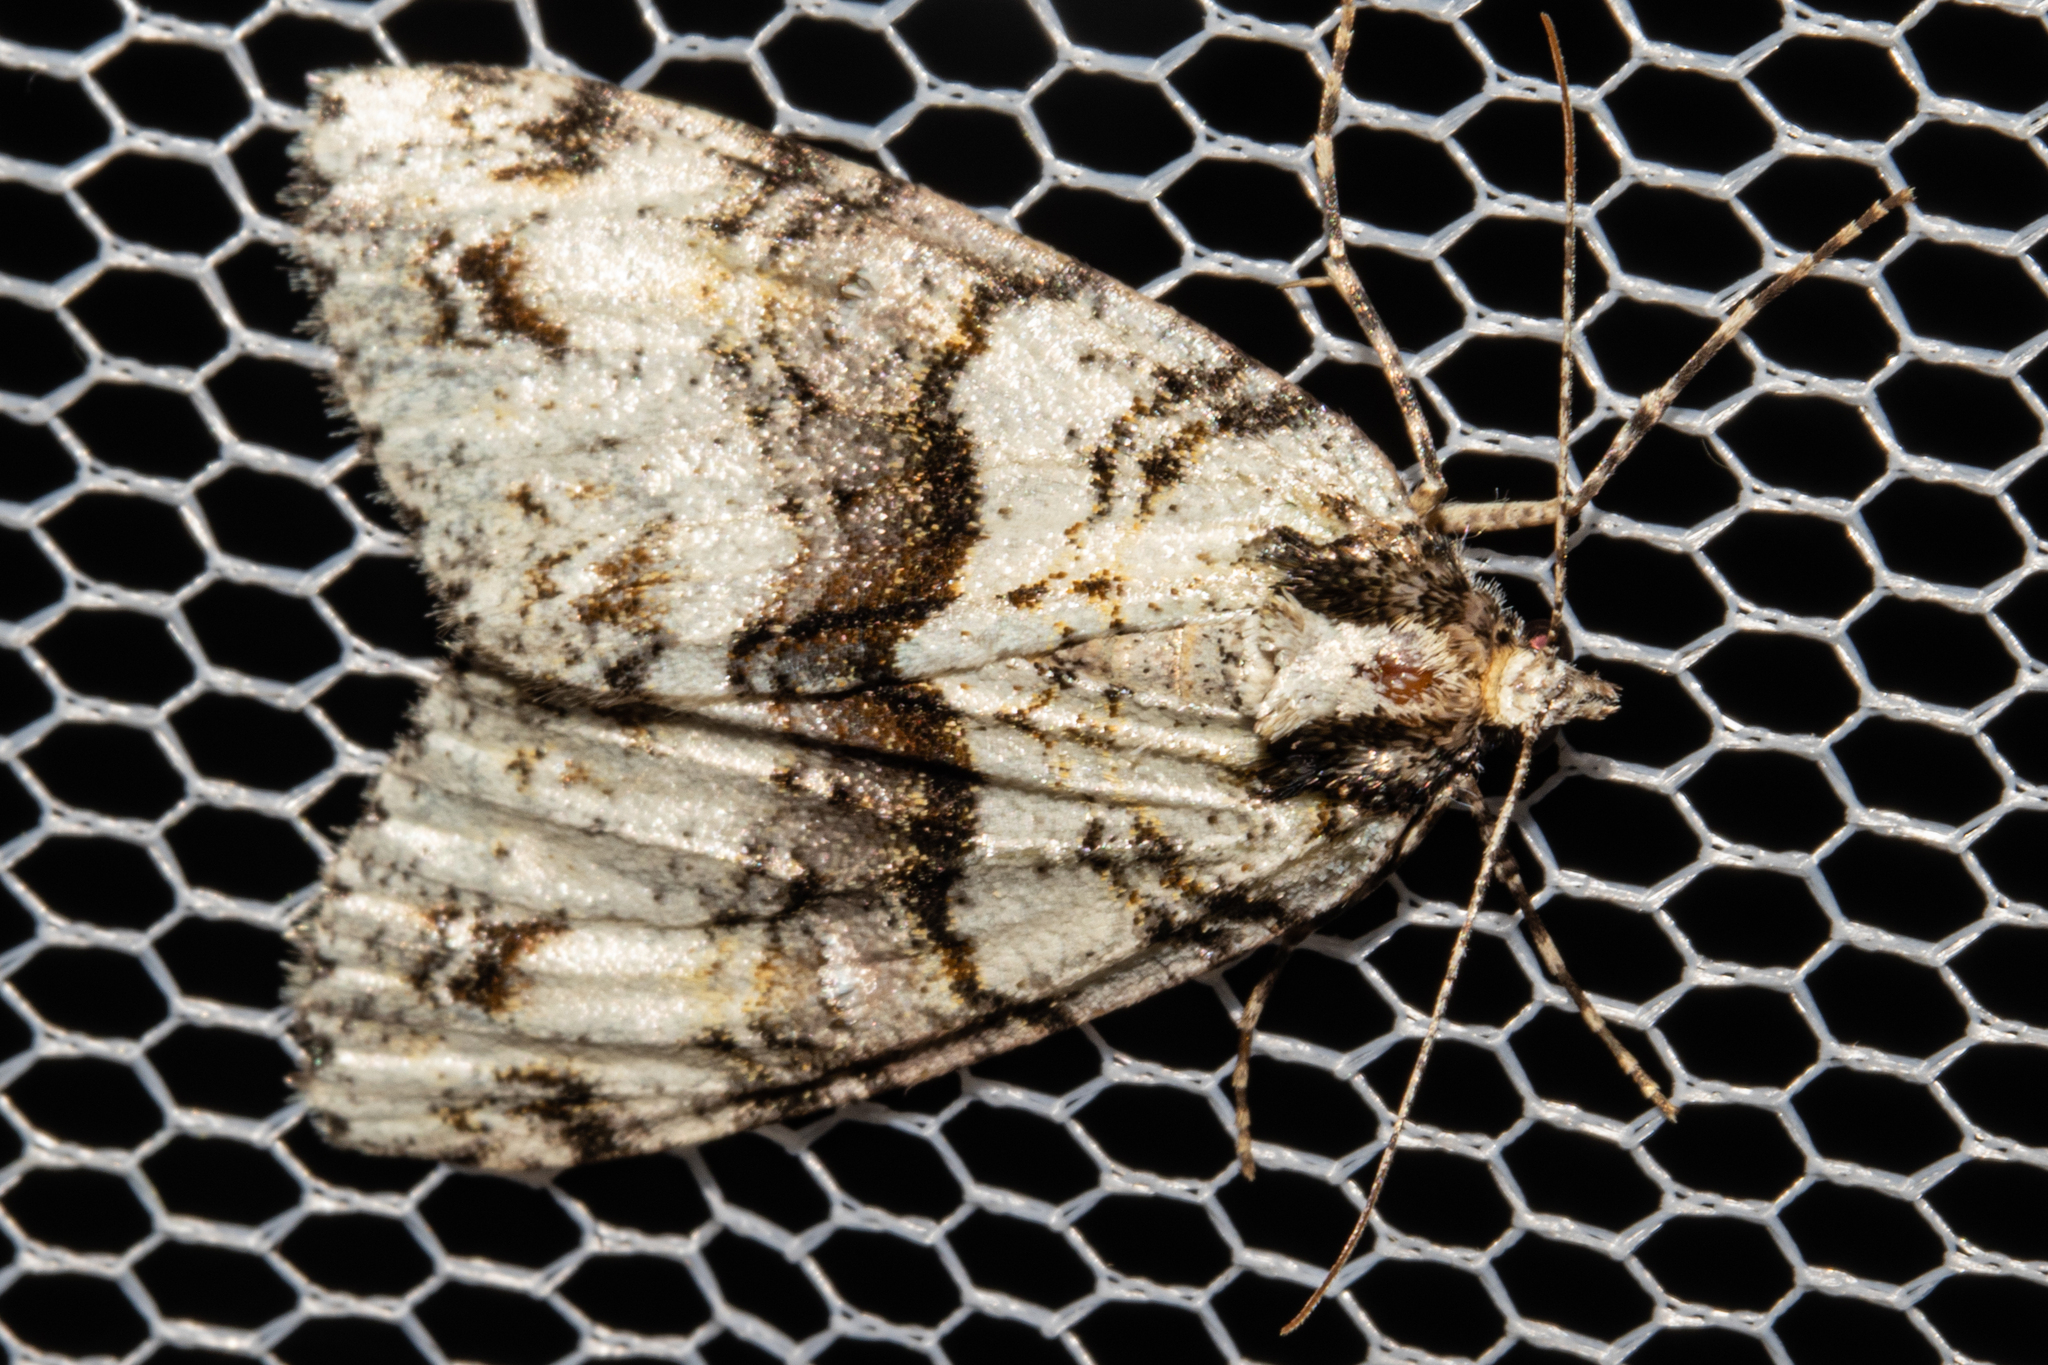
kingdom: Animalia
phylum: Arthropoda
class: Insecta
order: Lepidoptera
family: Geometridae
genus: Pseudocoremia
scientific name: Pseudocoremia suavis
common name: Common forest looper
